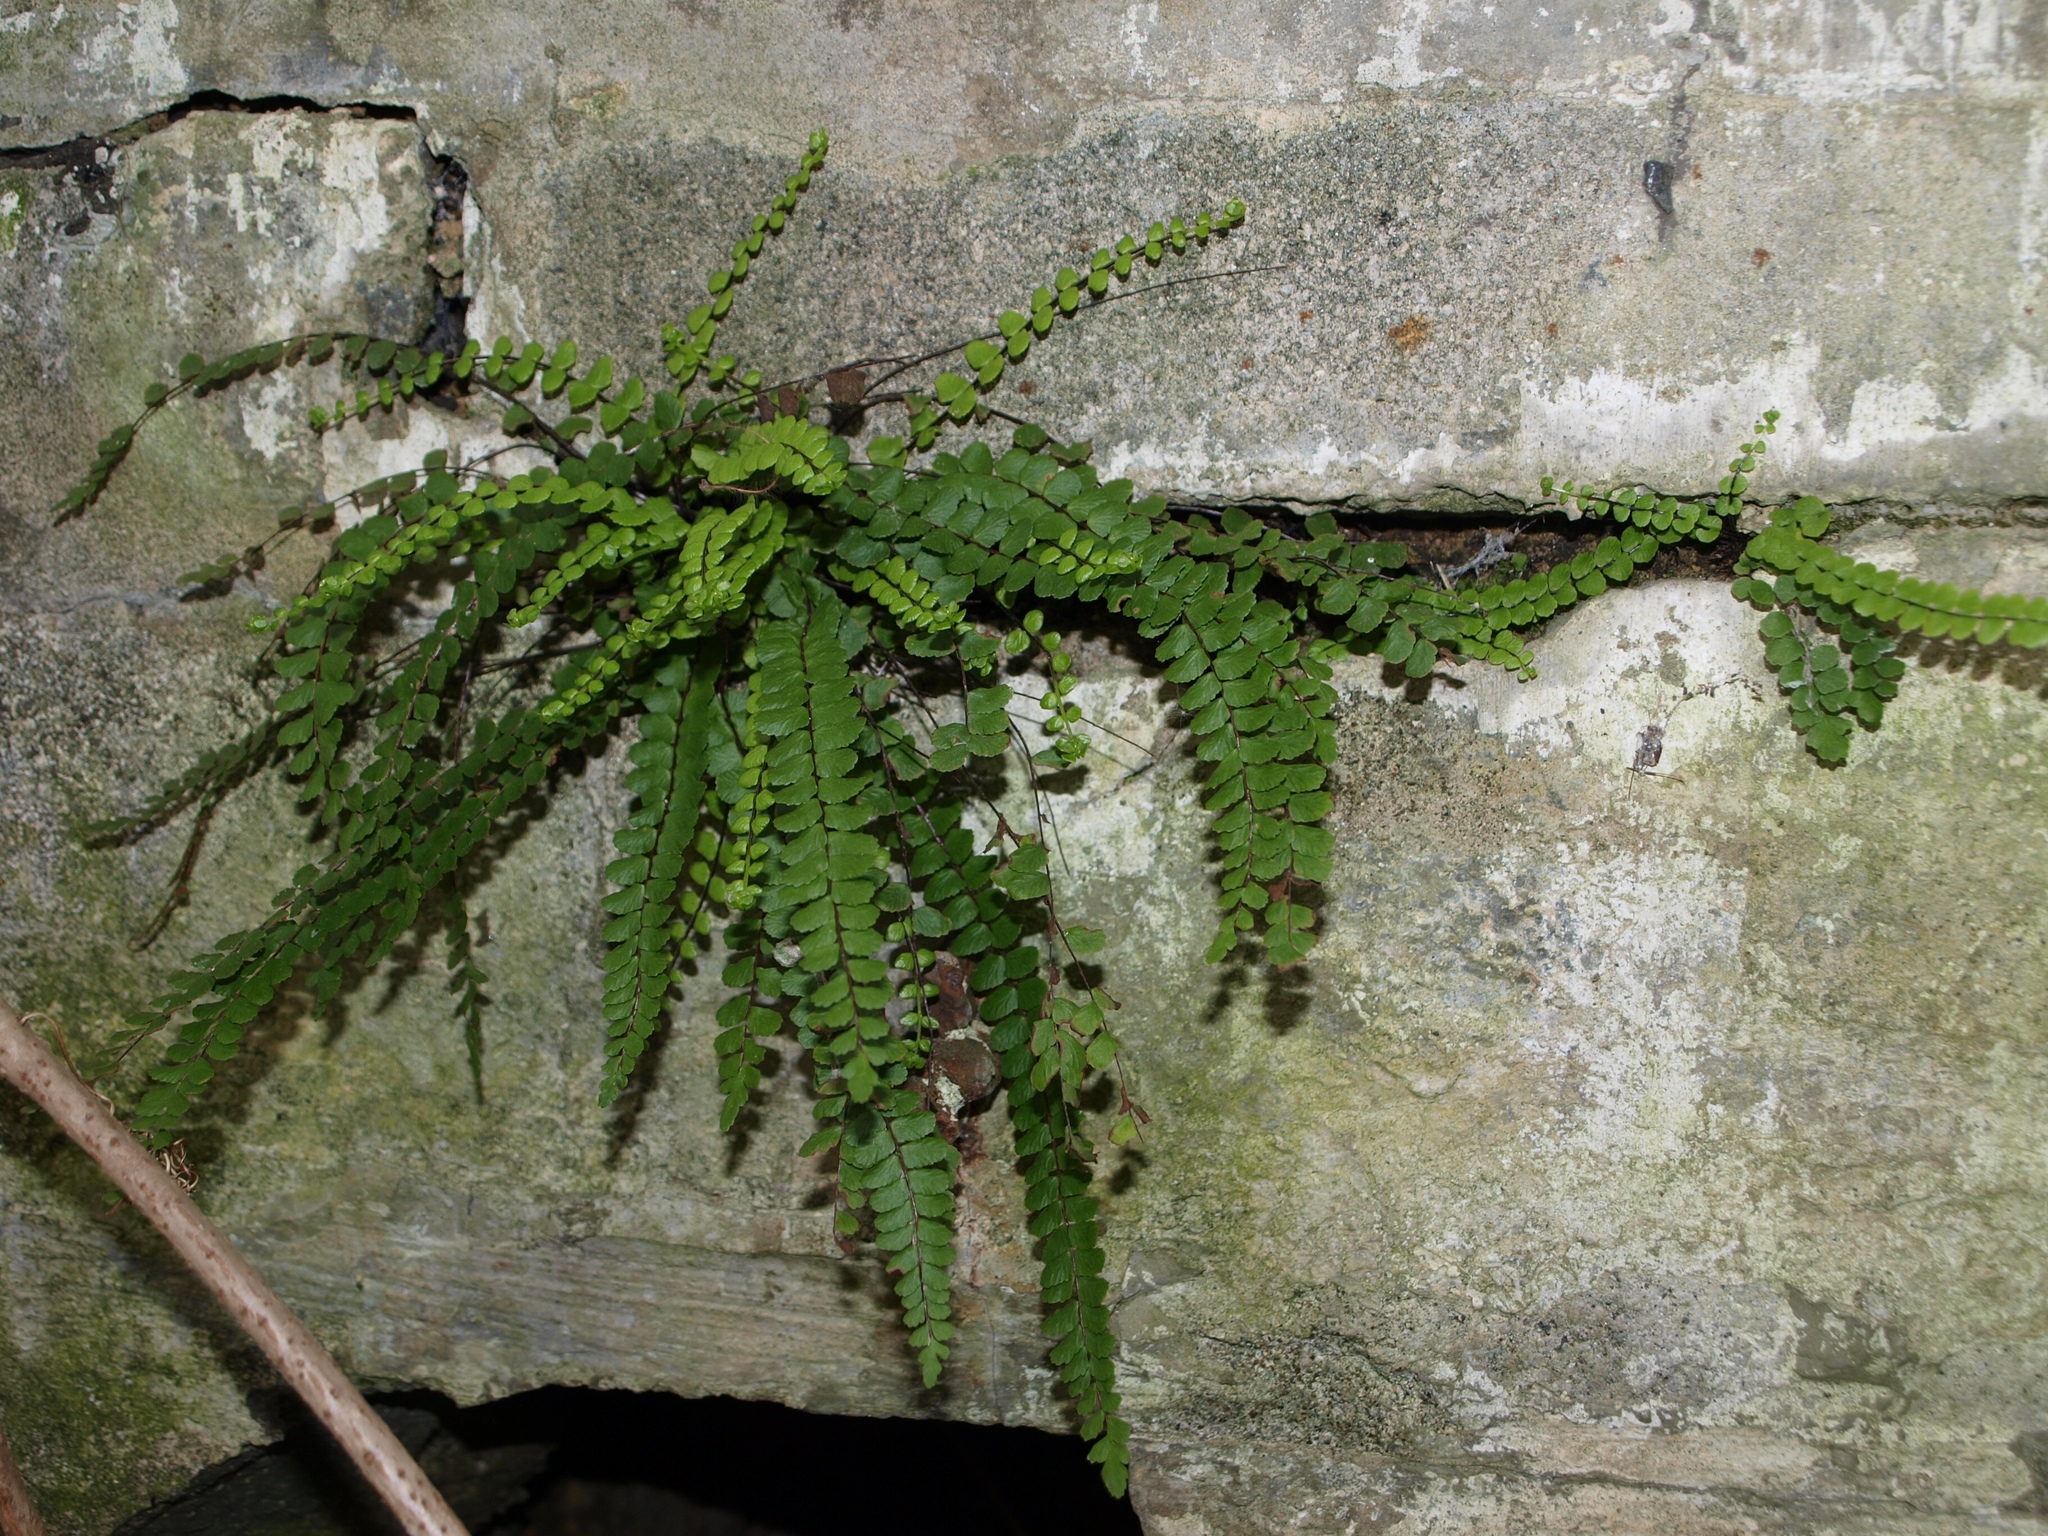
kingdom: Plantae
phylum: Tracheophyta
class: Polypodiopsida
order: Polypodiales
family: Aspleniaceae
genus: Asplenium
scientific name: Asplenium trichomanes
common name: Maidenhair spleenwort
